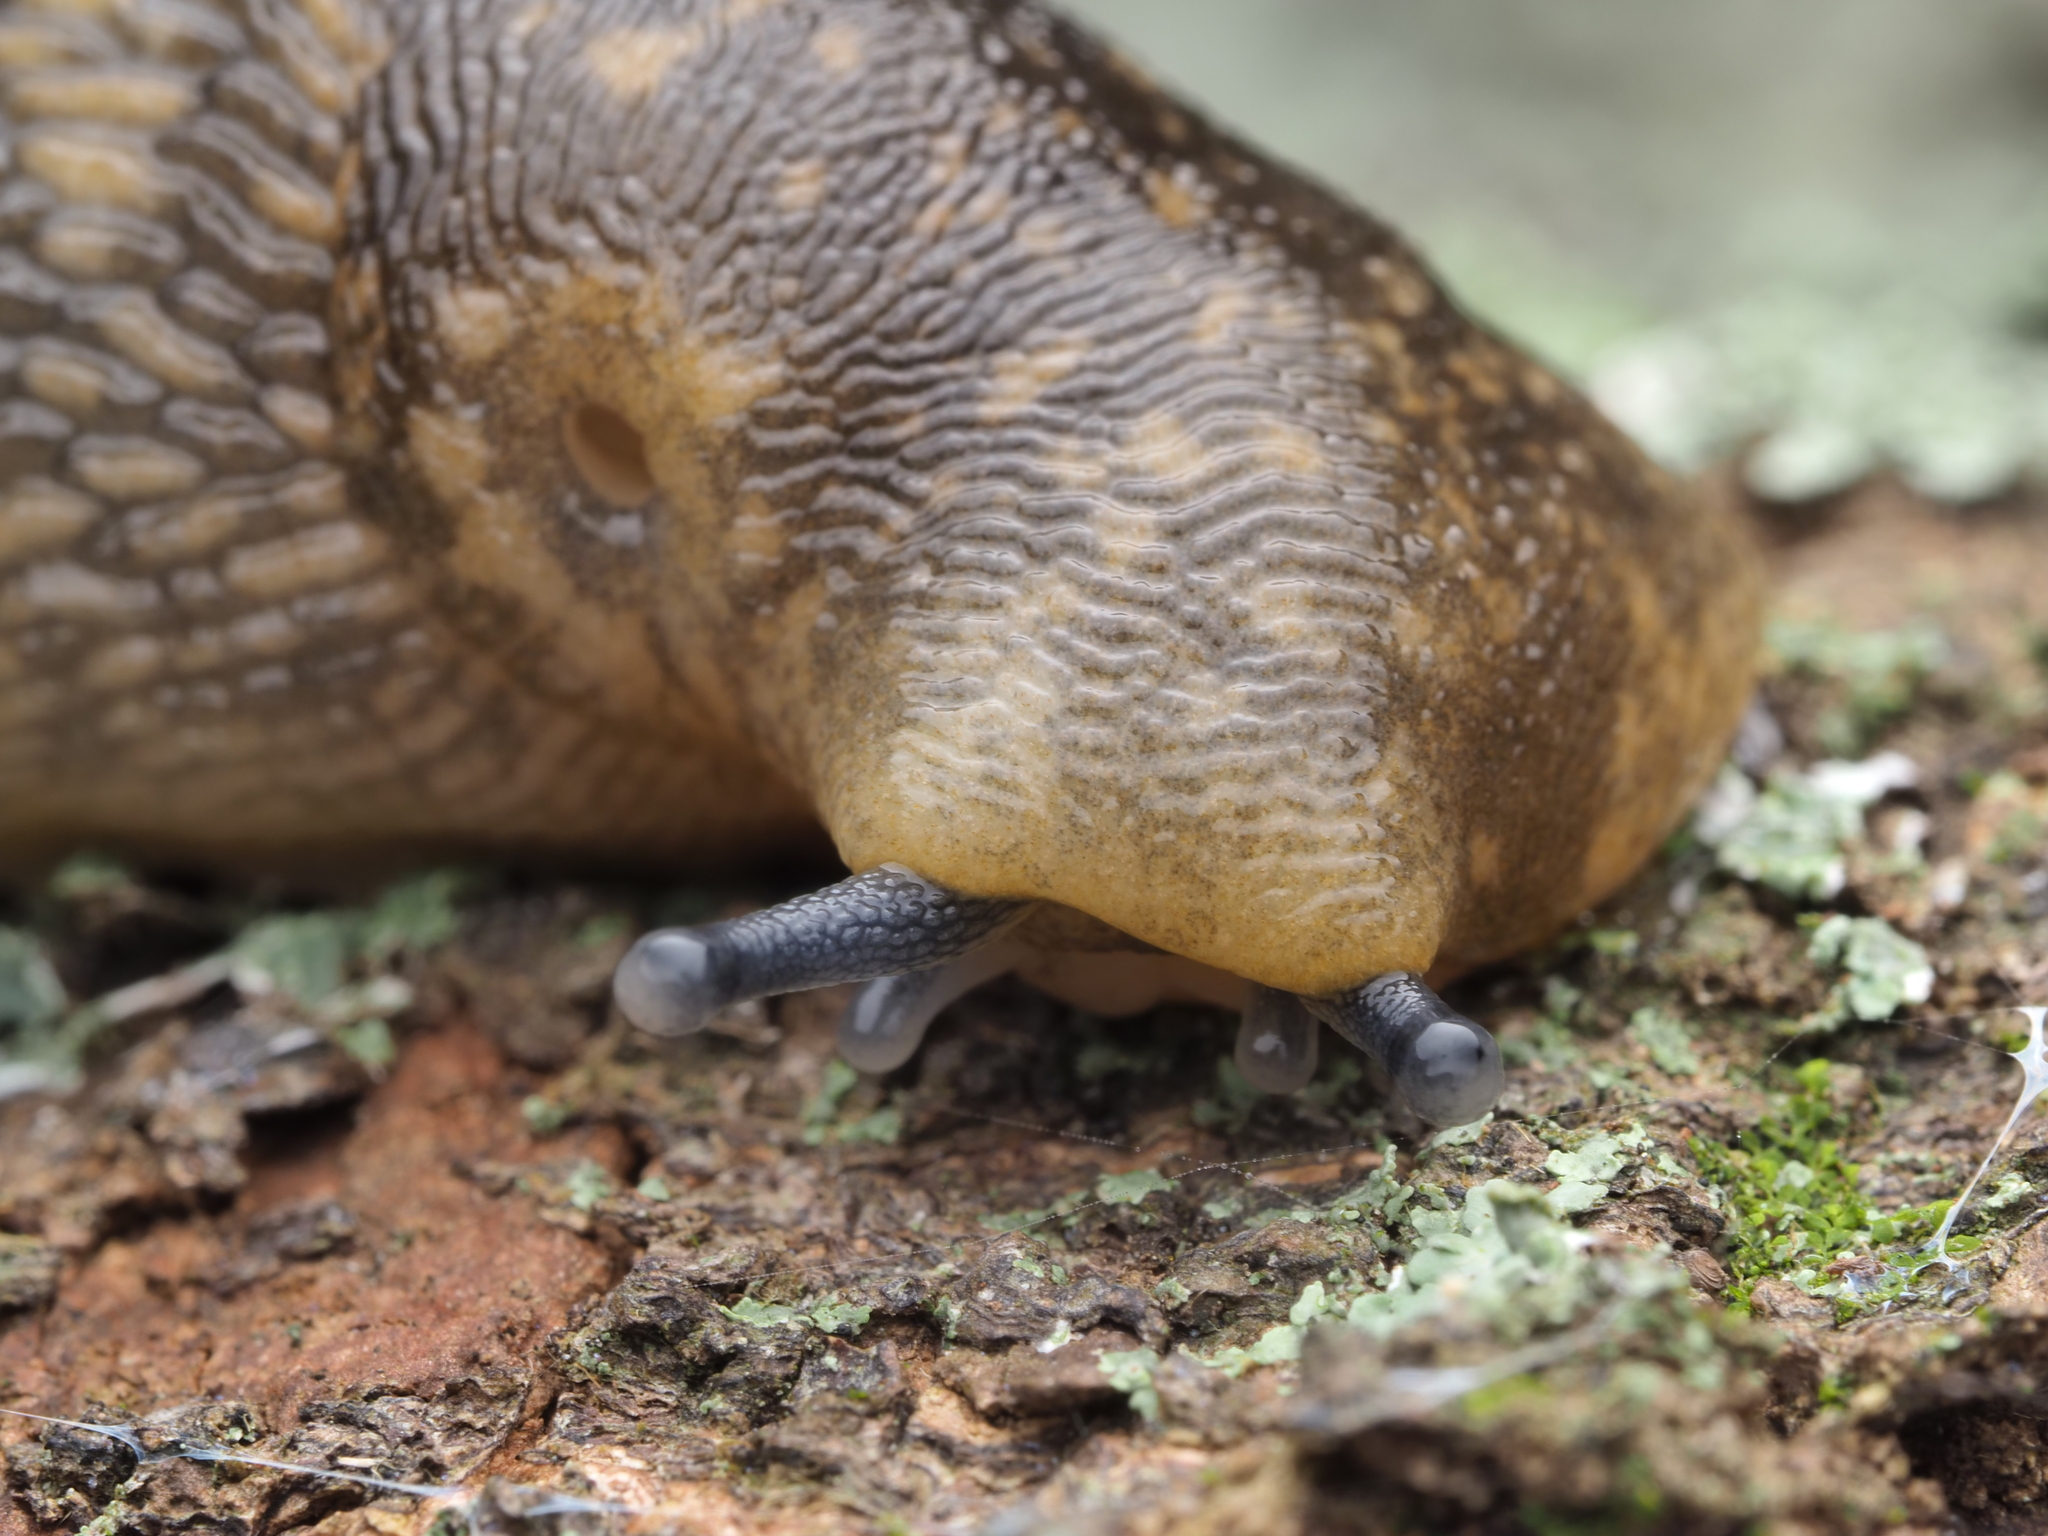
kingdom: Animalia
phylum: Mollusca
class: Gastropoda
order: Stylommatophora
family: Limacidae
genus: Limacus
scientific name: Limacus flavus
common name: Yellow gardenslug
